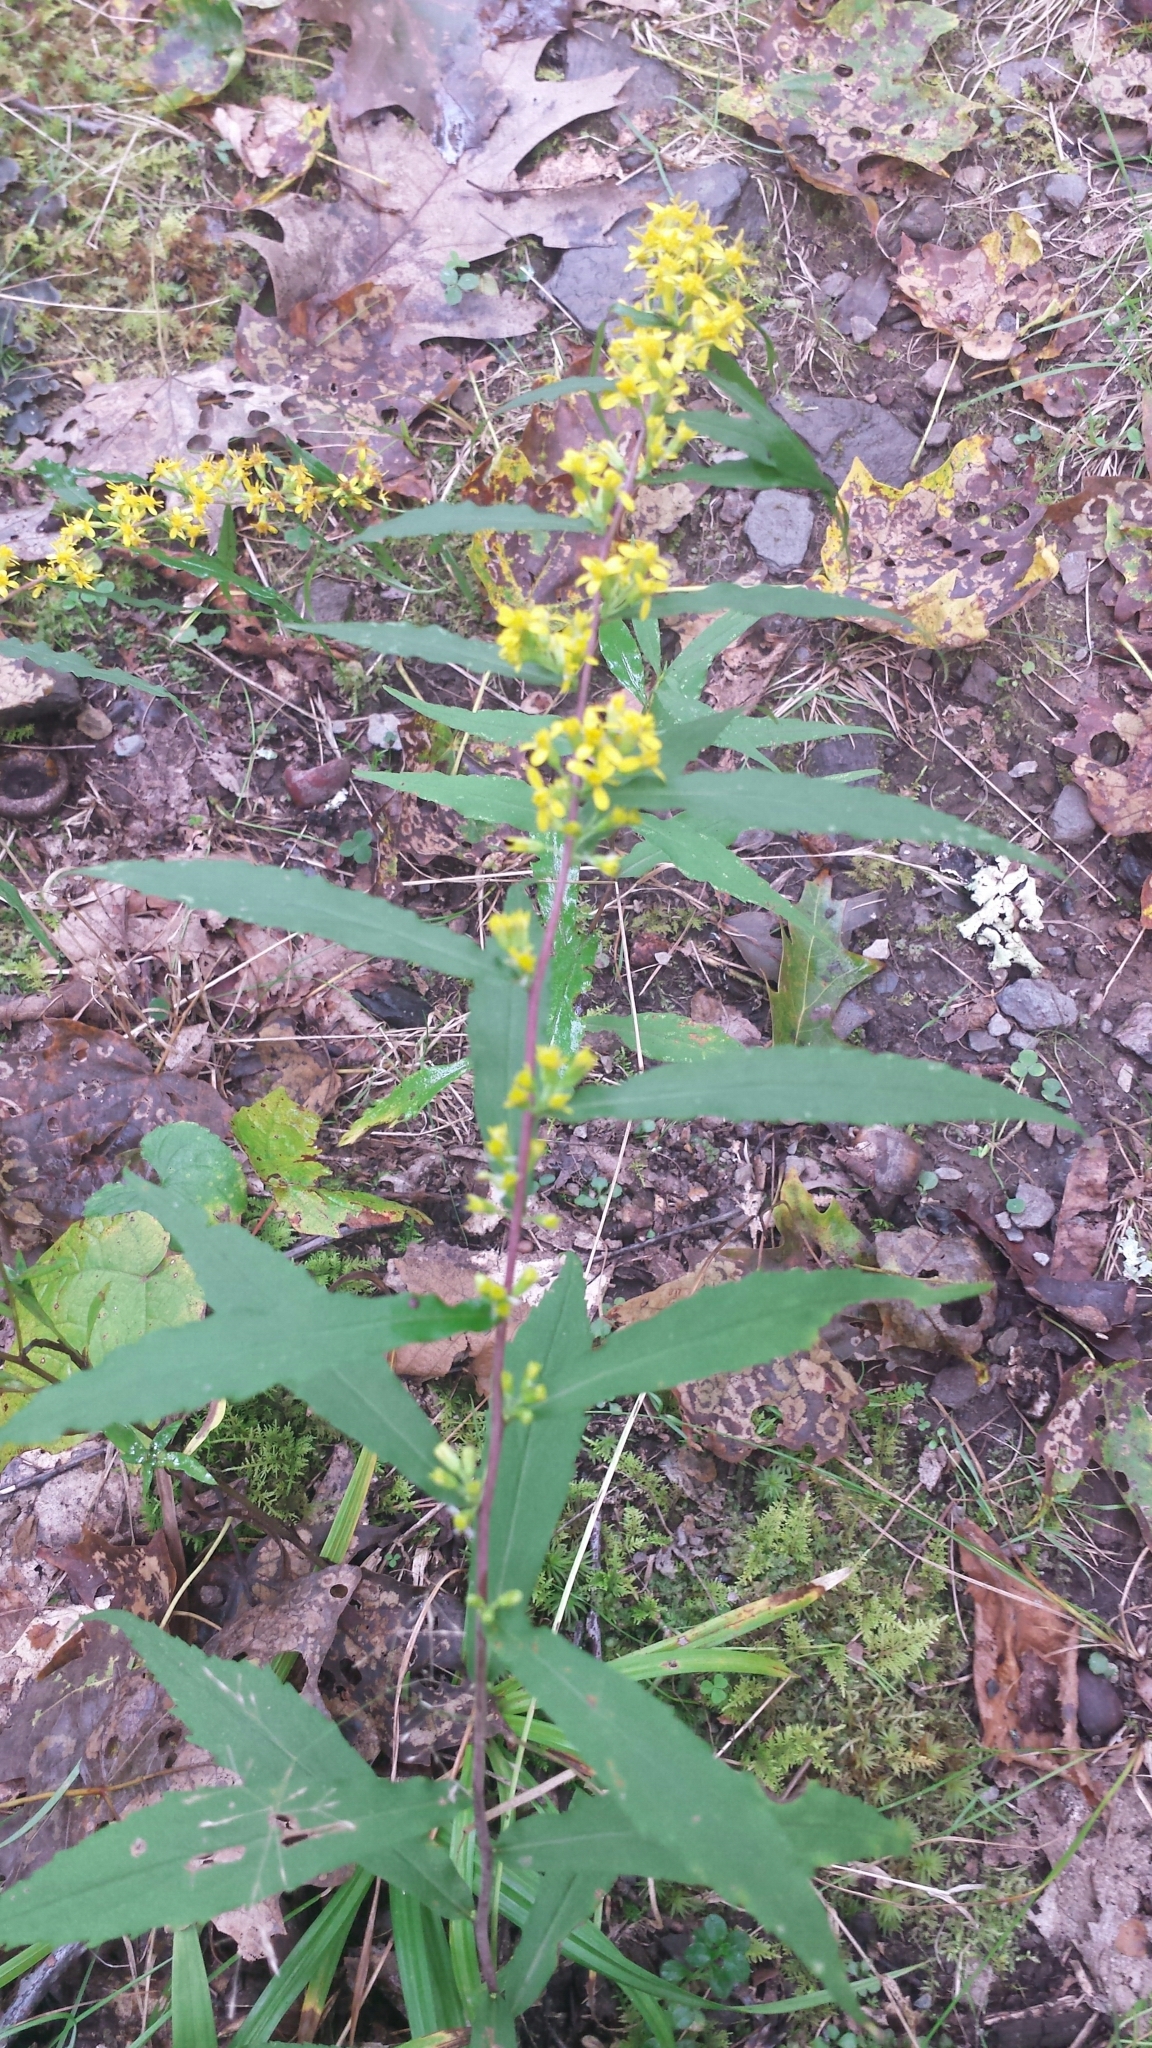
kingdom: Plantae
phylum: Tracheophyta
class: Magnoliopsida
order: Asterales
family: Asteraceae
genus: Solidago
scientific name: Solidago caesia
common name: Woodland goldenrod
